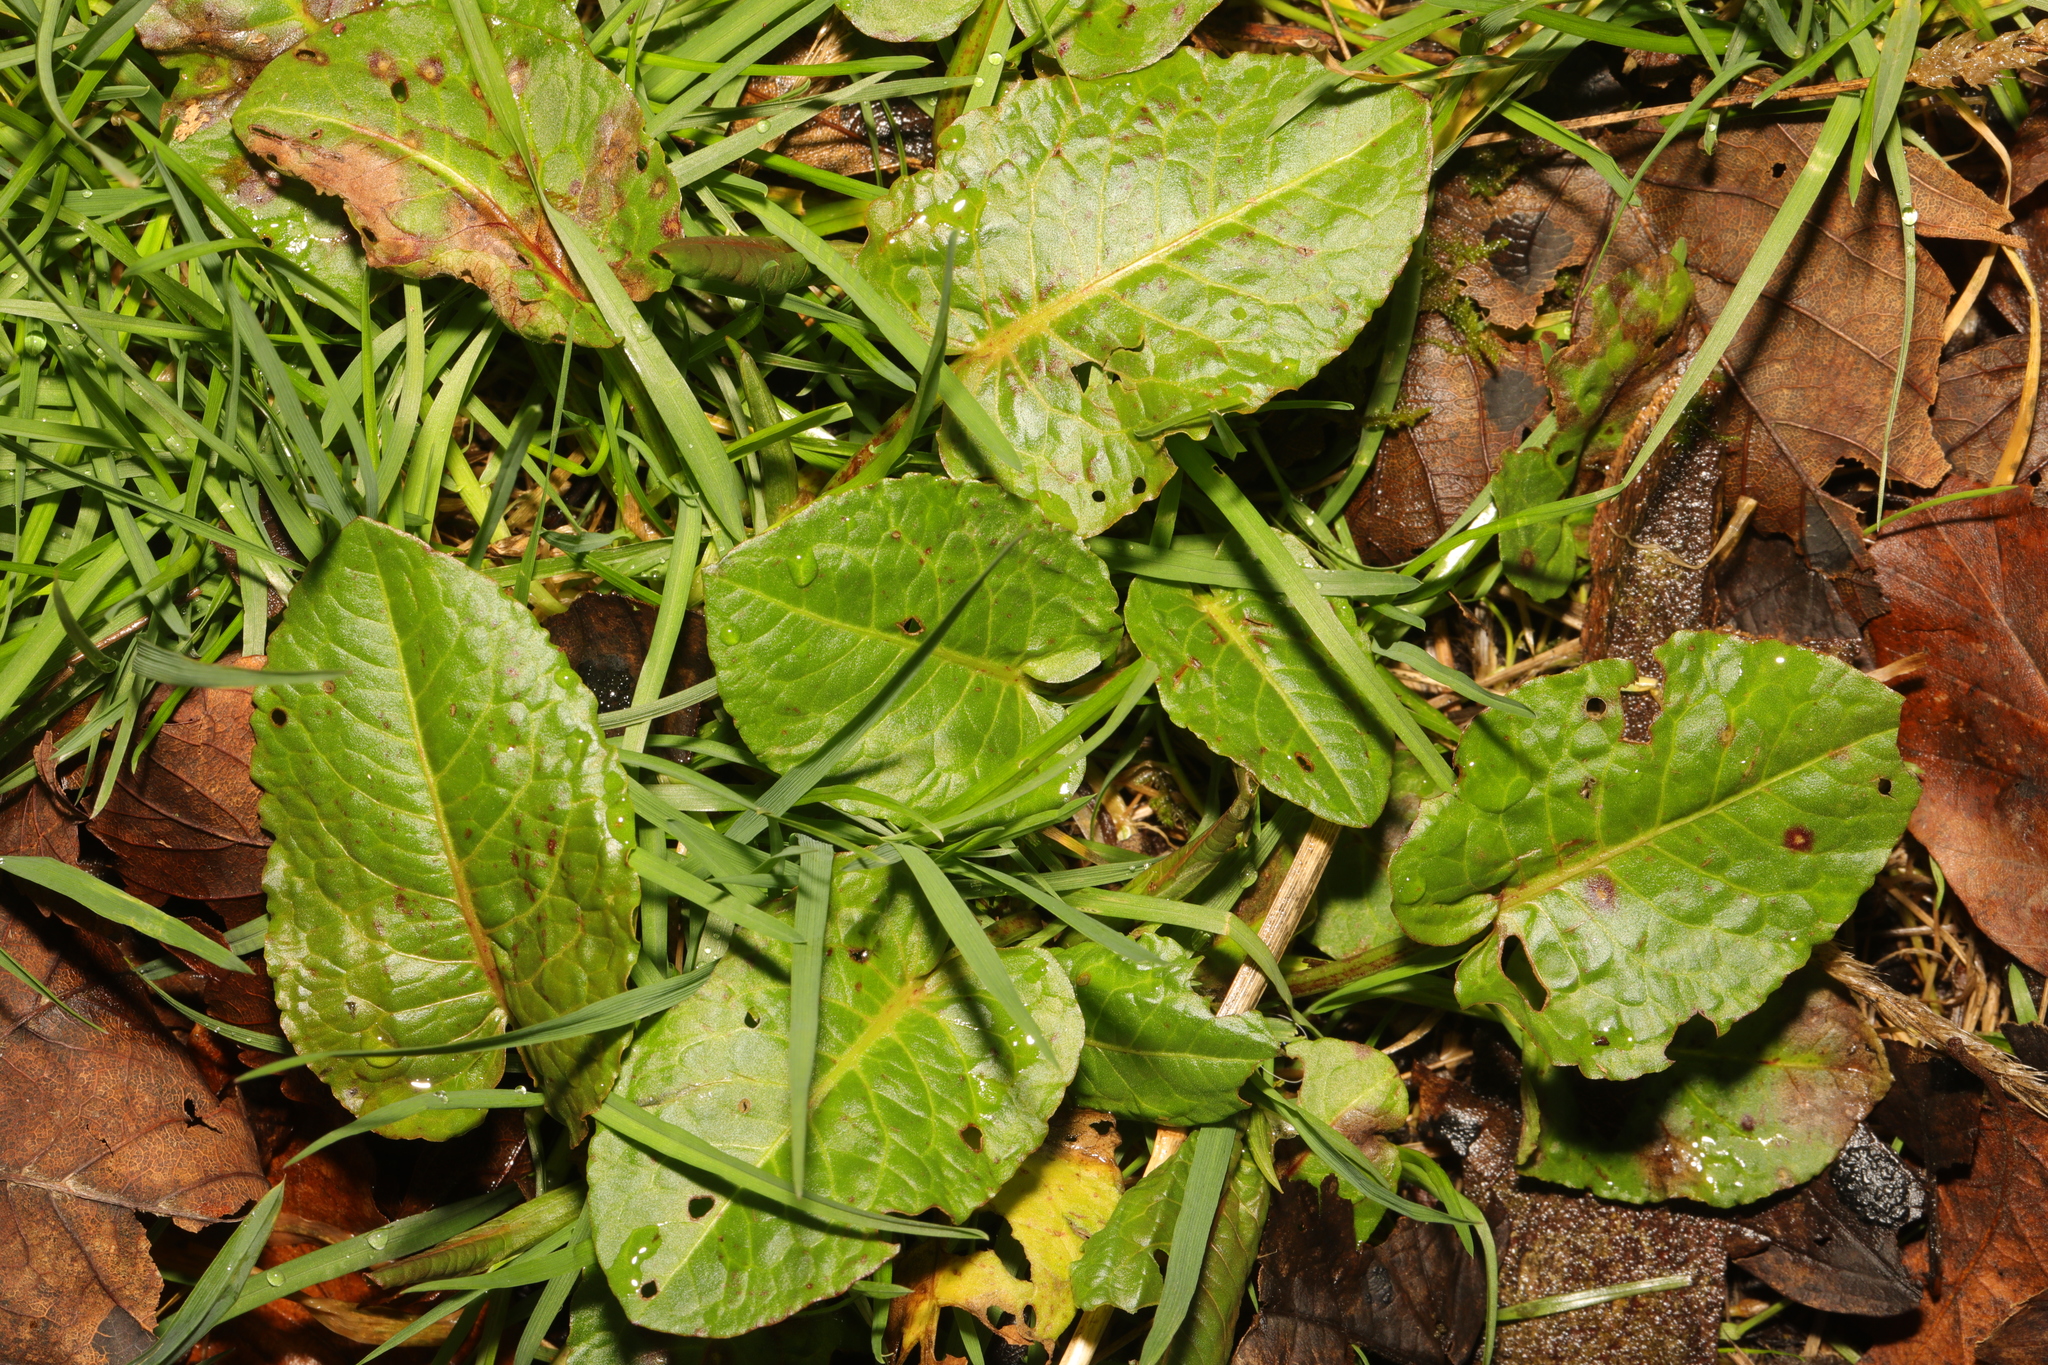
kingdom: Plantae
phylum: Tracheophyta
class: Magnoliopsida
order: Caryophyllales
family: Polygonaceae
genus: Rumex
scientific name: Rumex obtusifolius
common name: Bitter dock
